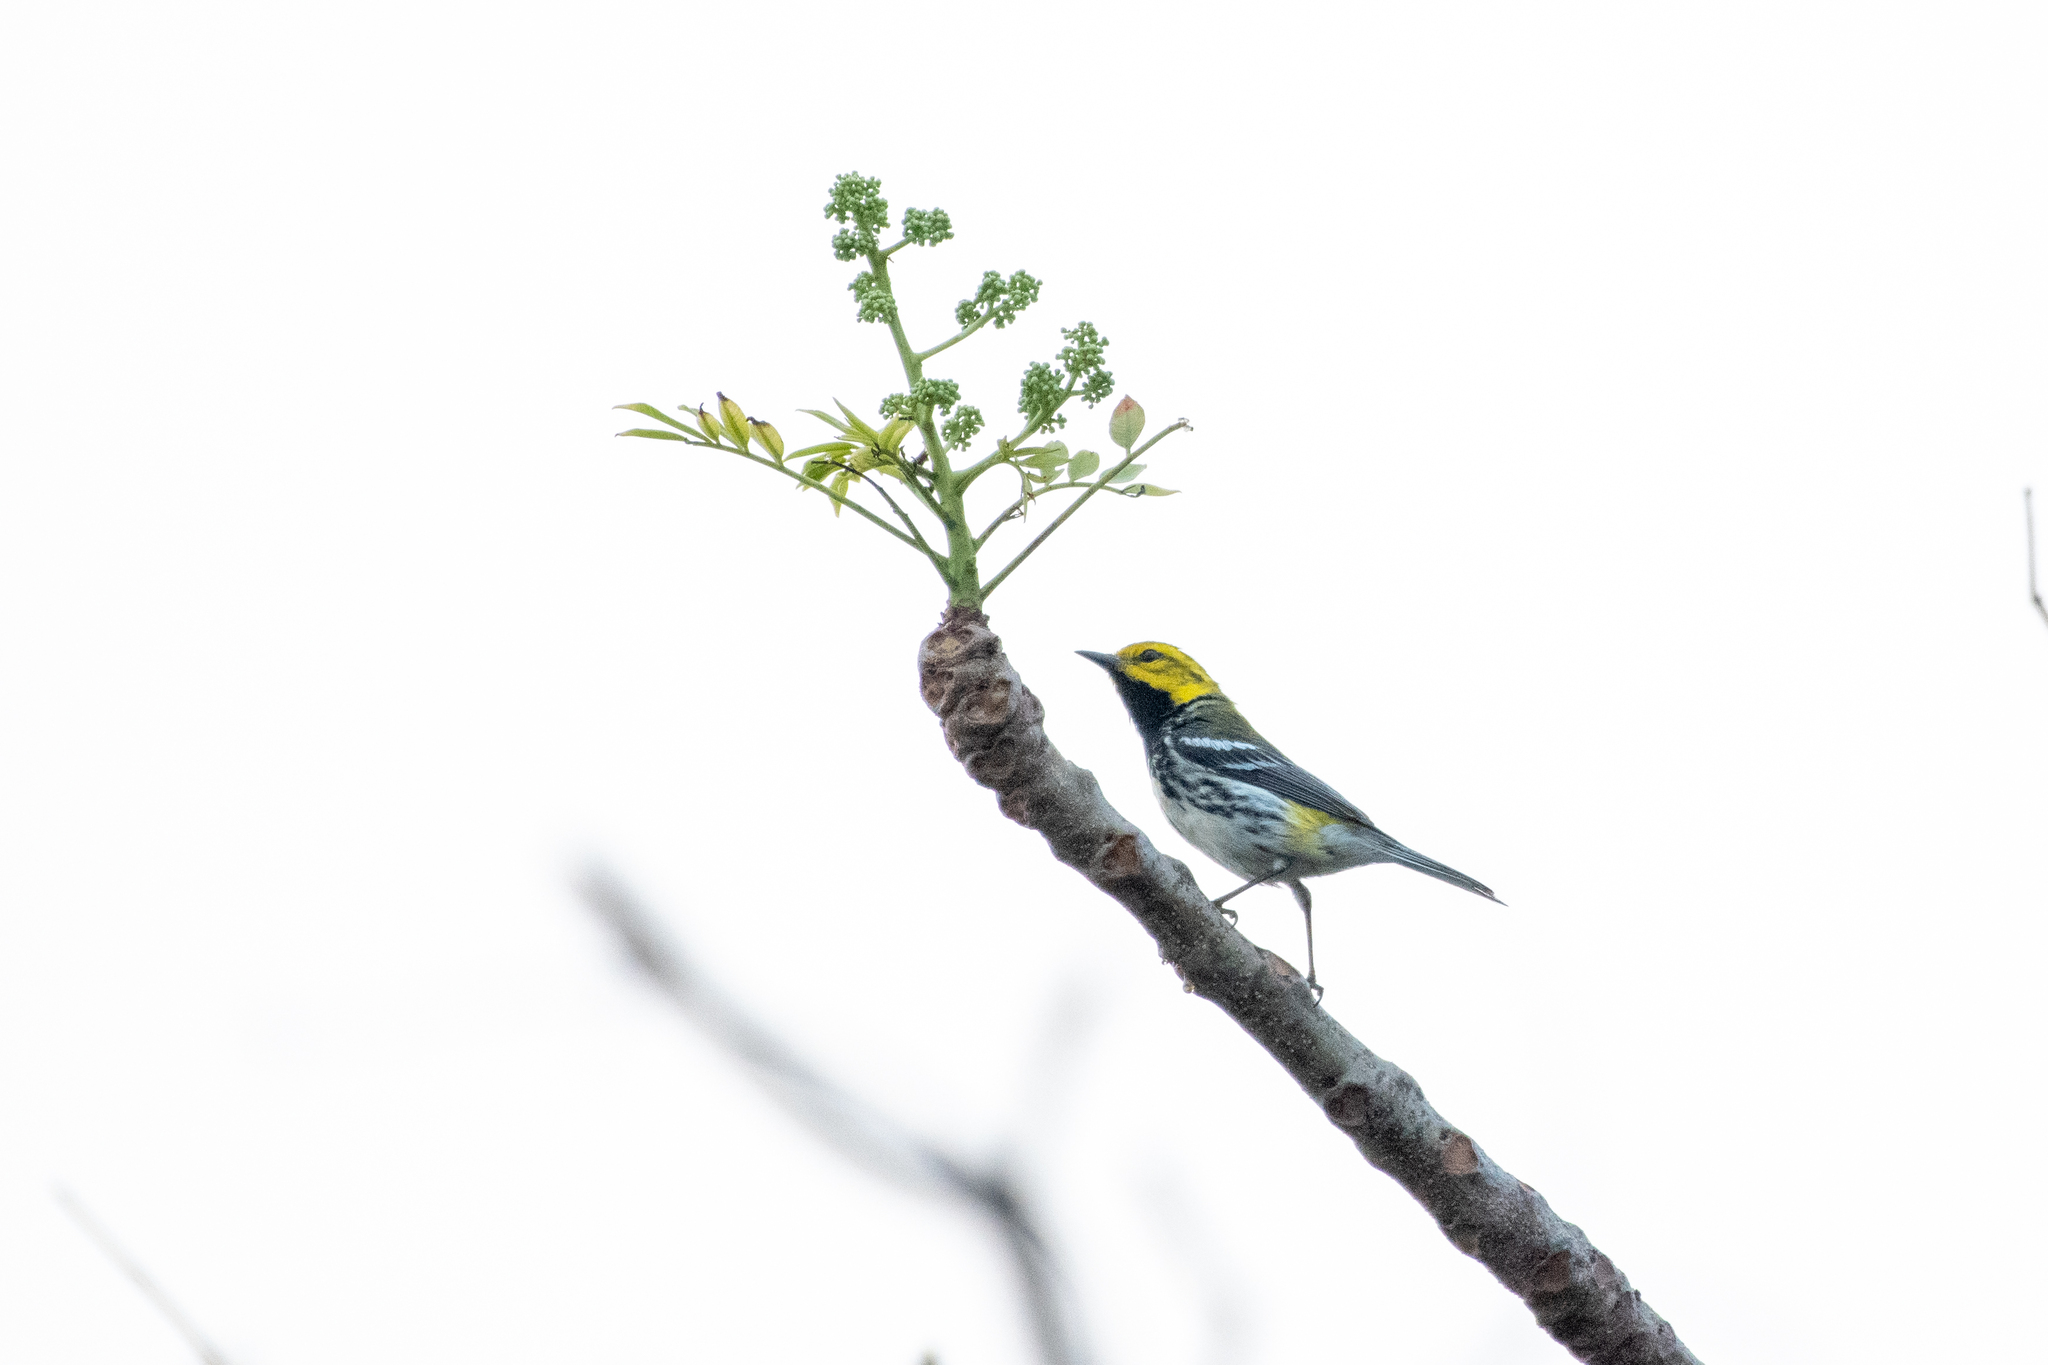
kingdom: Animalia
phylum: Chordata
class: Aves
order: Passeriformes
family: Parulidae
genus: Setophaga
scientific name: Setophaga virens
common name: Black-throated green warbler
